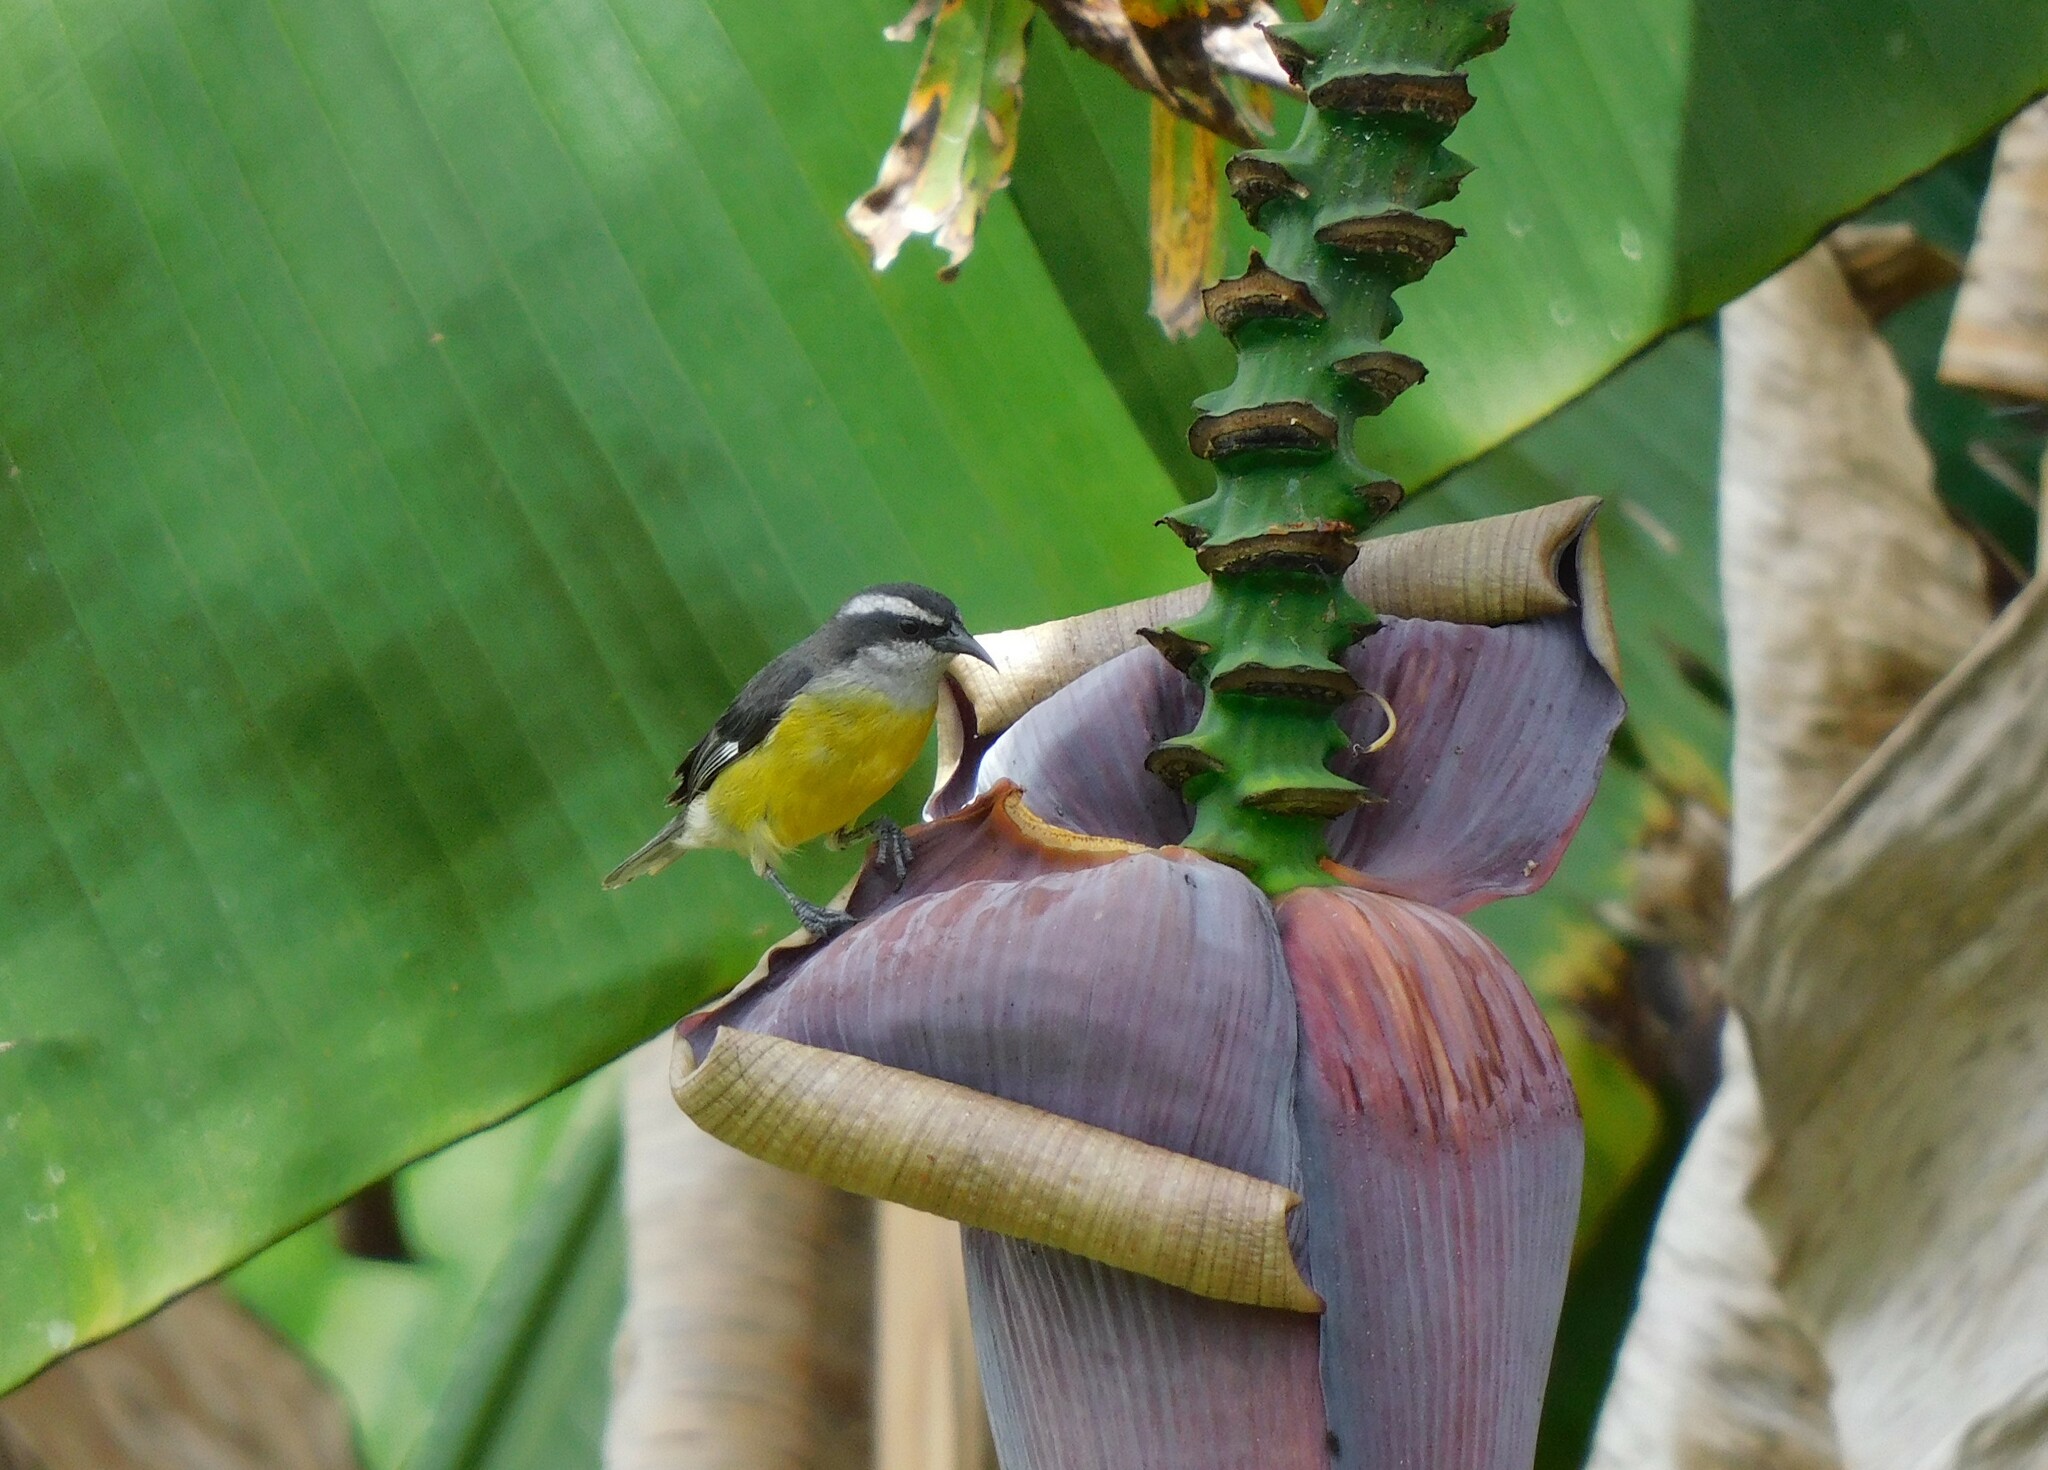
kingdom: Animalia
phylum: Chordata
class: Aves
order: Passeriformes
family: Thraupidae
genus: Coereba
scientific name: Coereba flaveola
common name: Bananaquit
